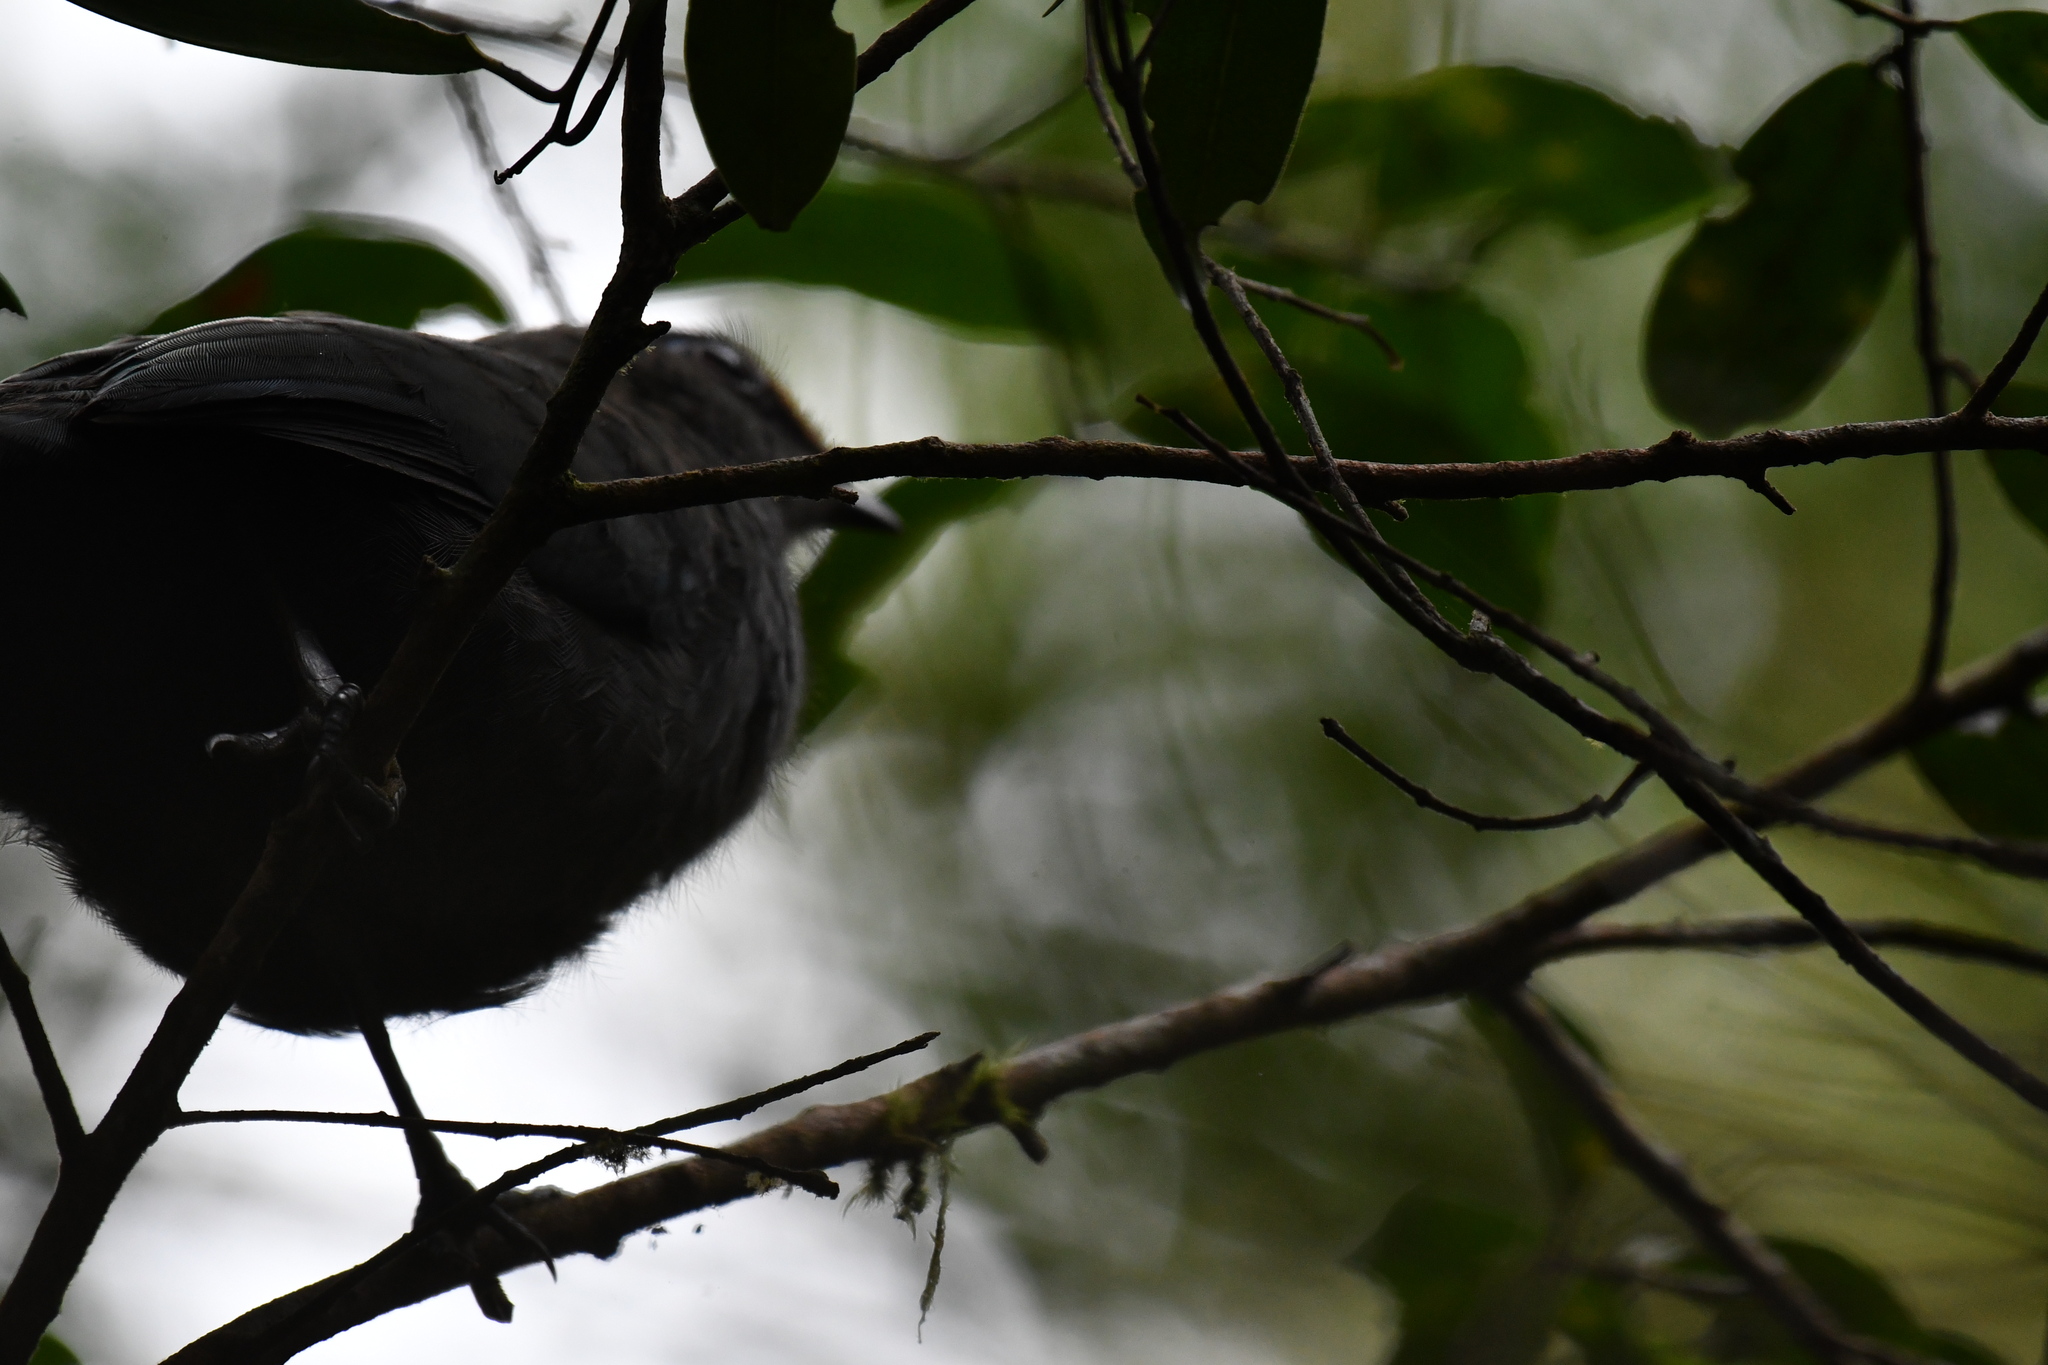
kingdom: Animalia
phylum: Chordata
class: Aves
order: Cuculiformes
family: Cuculidae
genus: Coua
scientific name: Coua reynaudii
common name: Red-fronted coua
